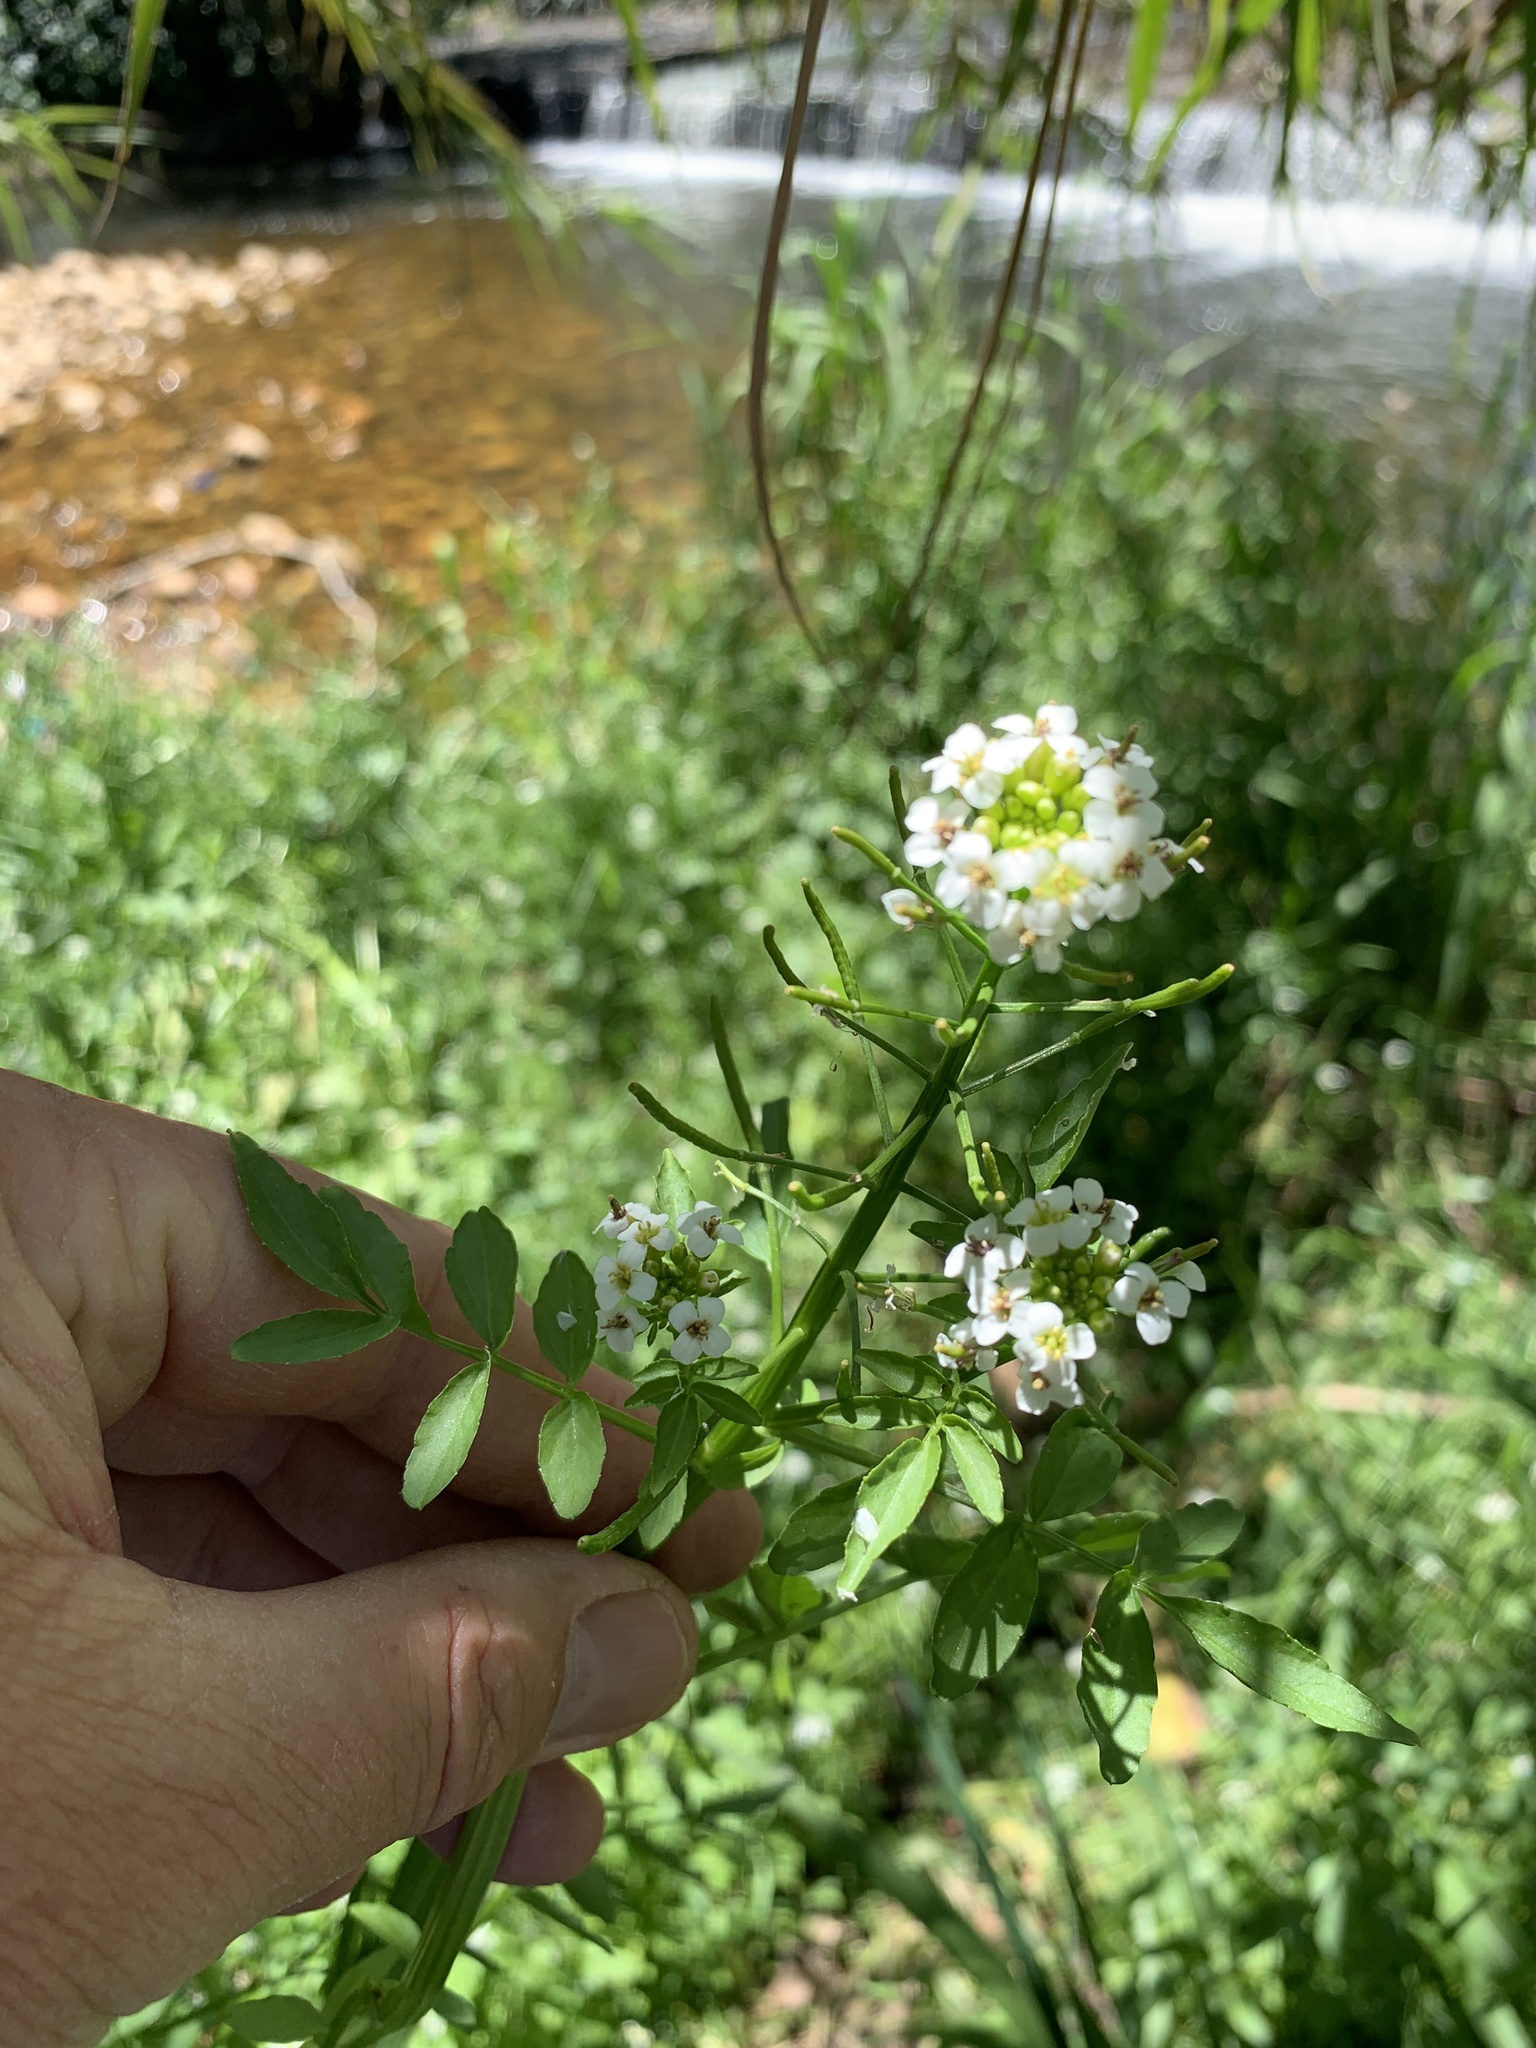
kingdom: Plantae
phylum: Tracheophyta
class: Magnoliopsida
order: Brassicales
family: Brassicaceae
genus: Nasturtium
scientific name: Nasturtium officinale
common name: Watercress
